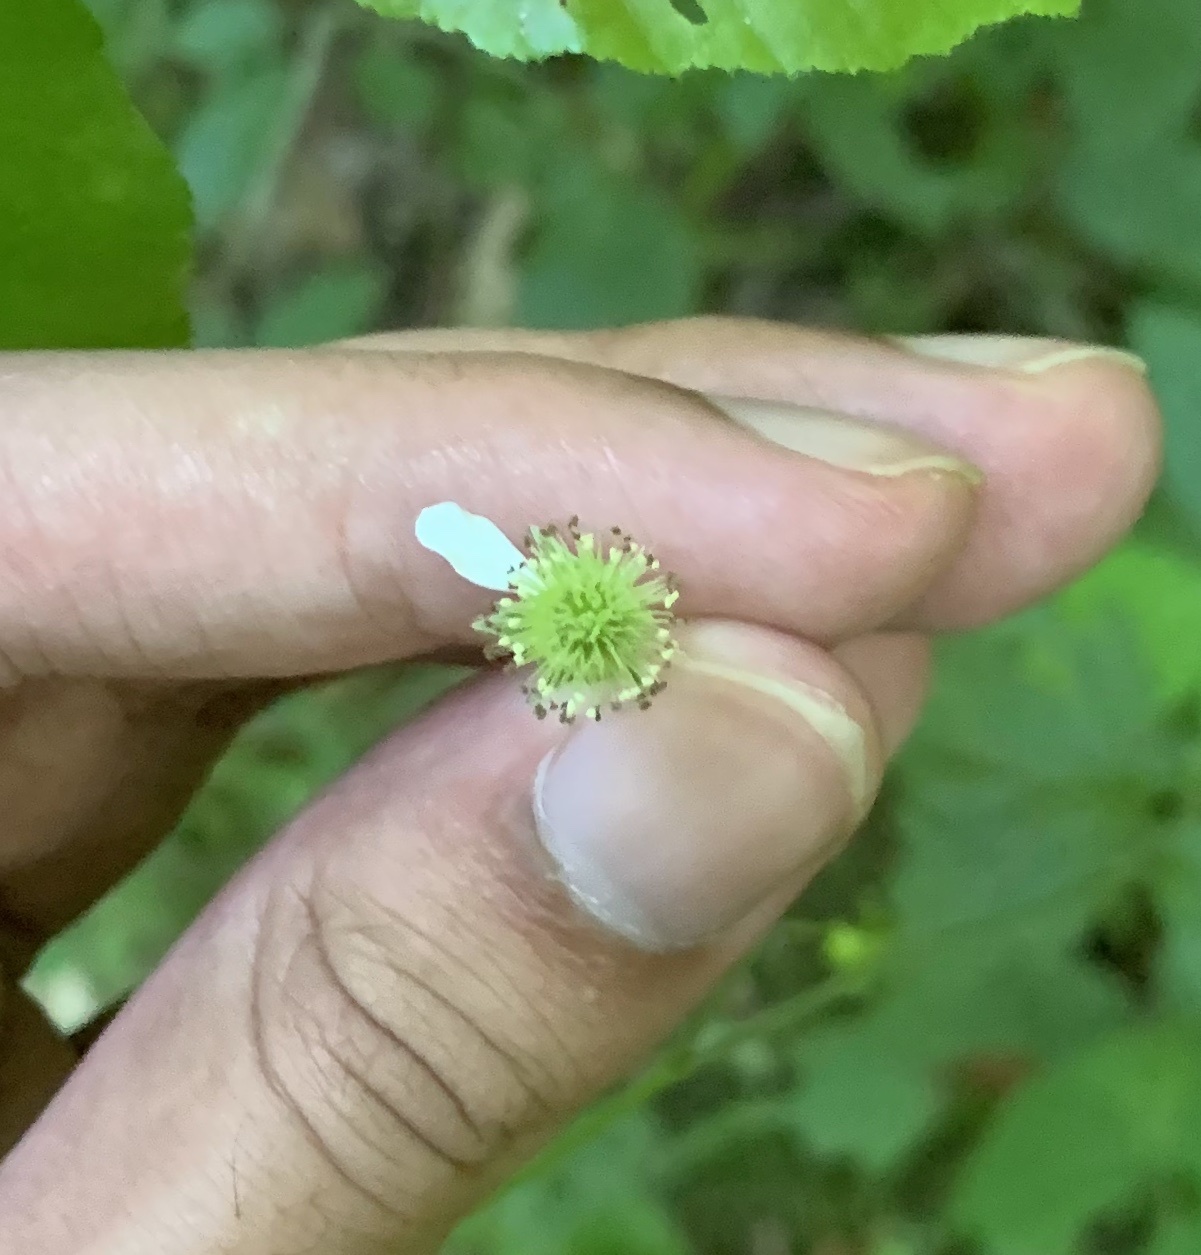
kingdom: Plantae
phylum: Tracheophyta
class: Magnoliopsida
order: Rosales
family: Rosaceae
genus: Geum
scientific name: Geum canadense
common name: White avens
